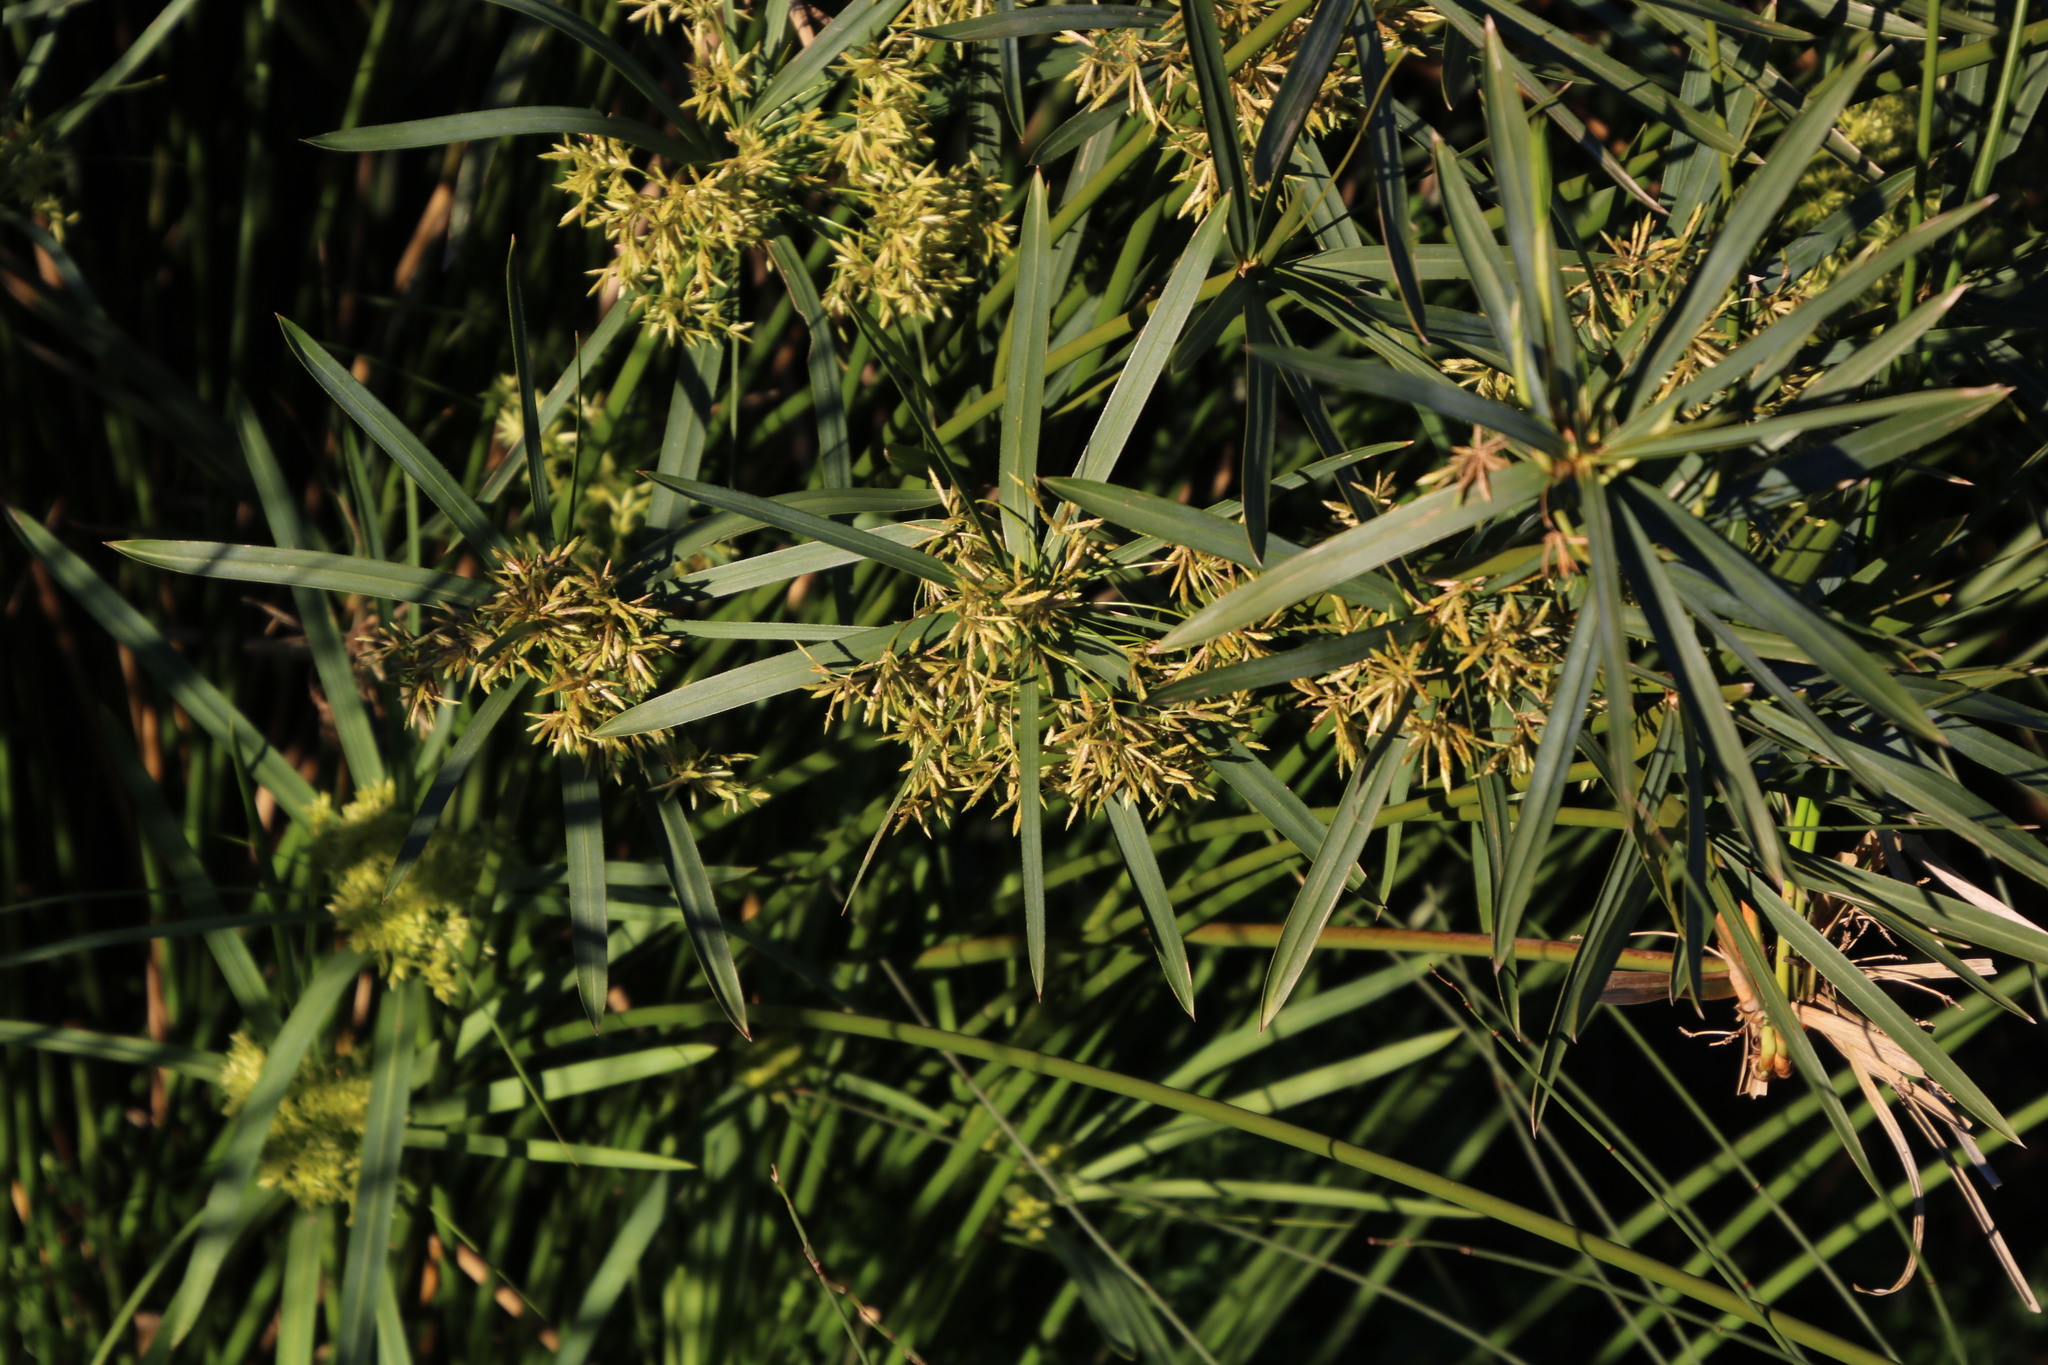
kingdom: Plantae
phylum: Tracheophyta
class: Liliopsida
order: Poales
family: Cyperaceae
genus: Cyperus
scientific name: Cyperus textilis
